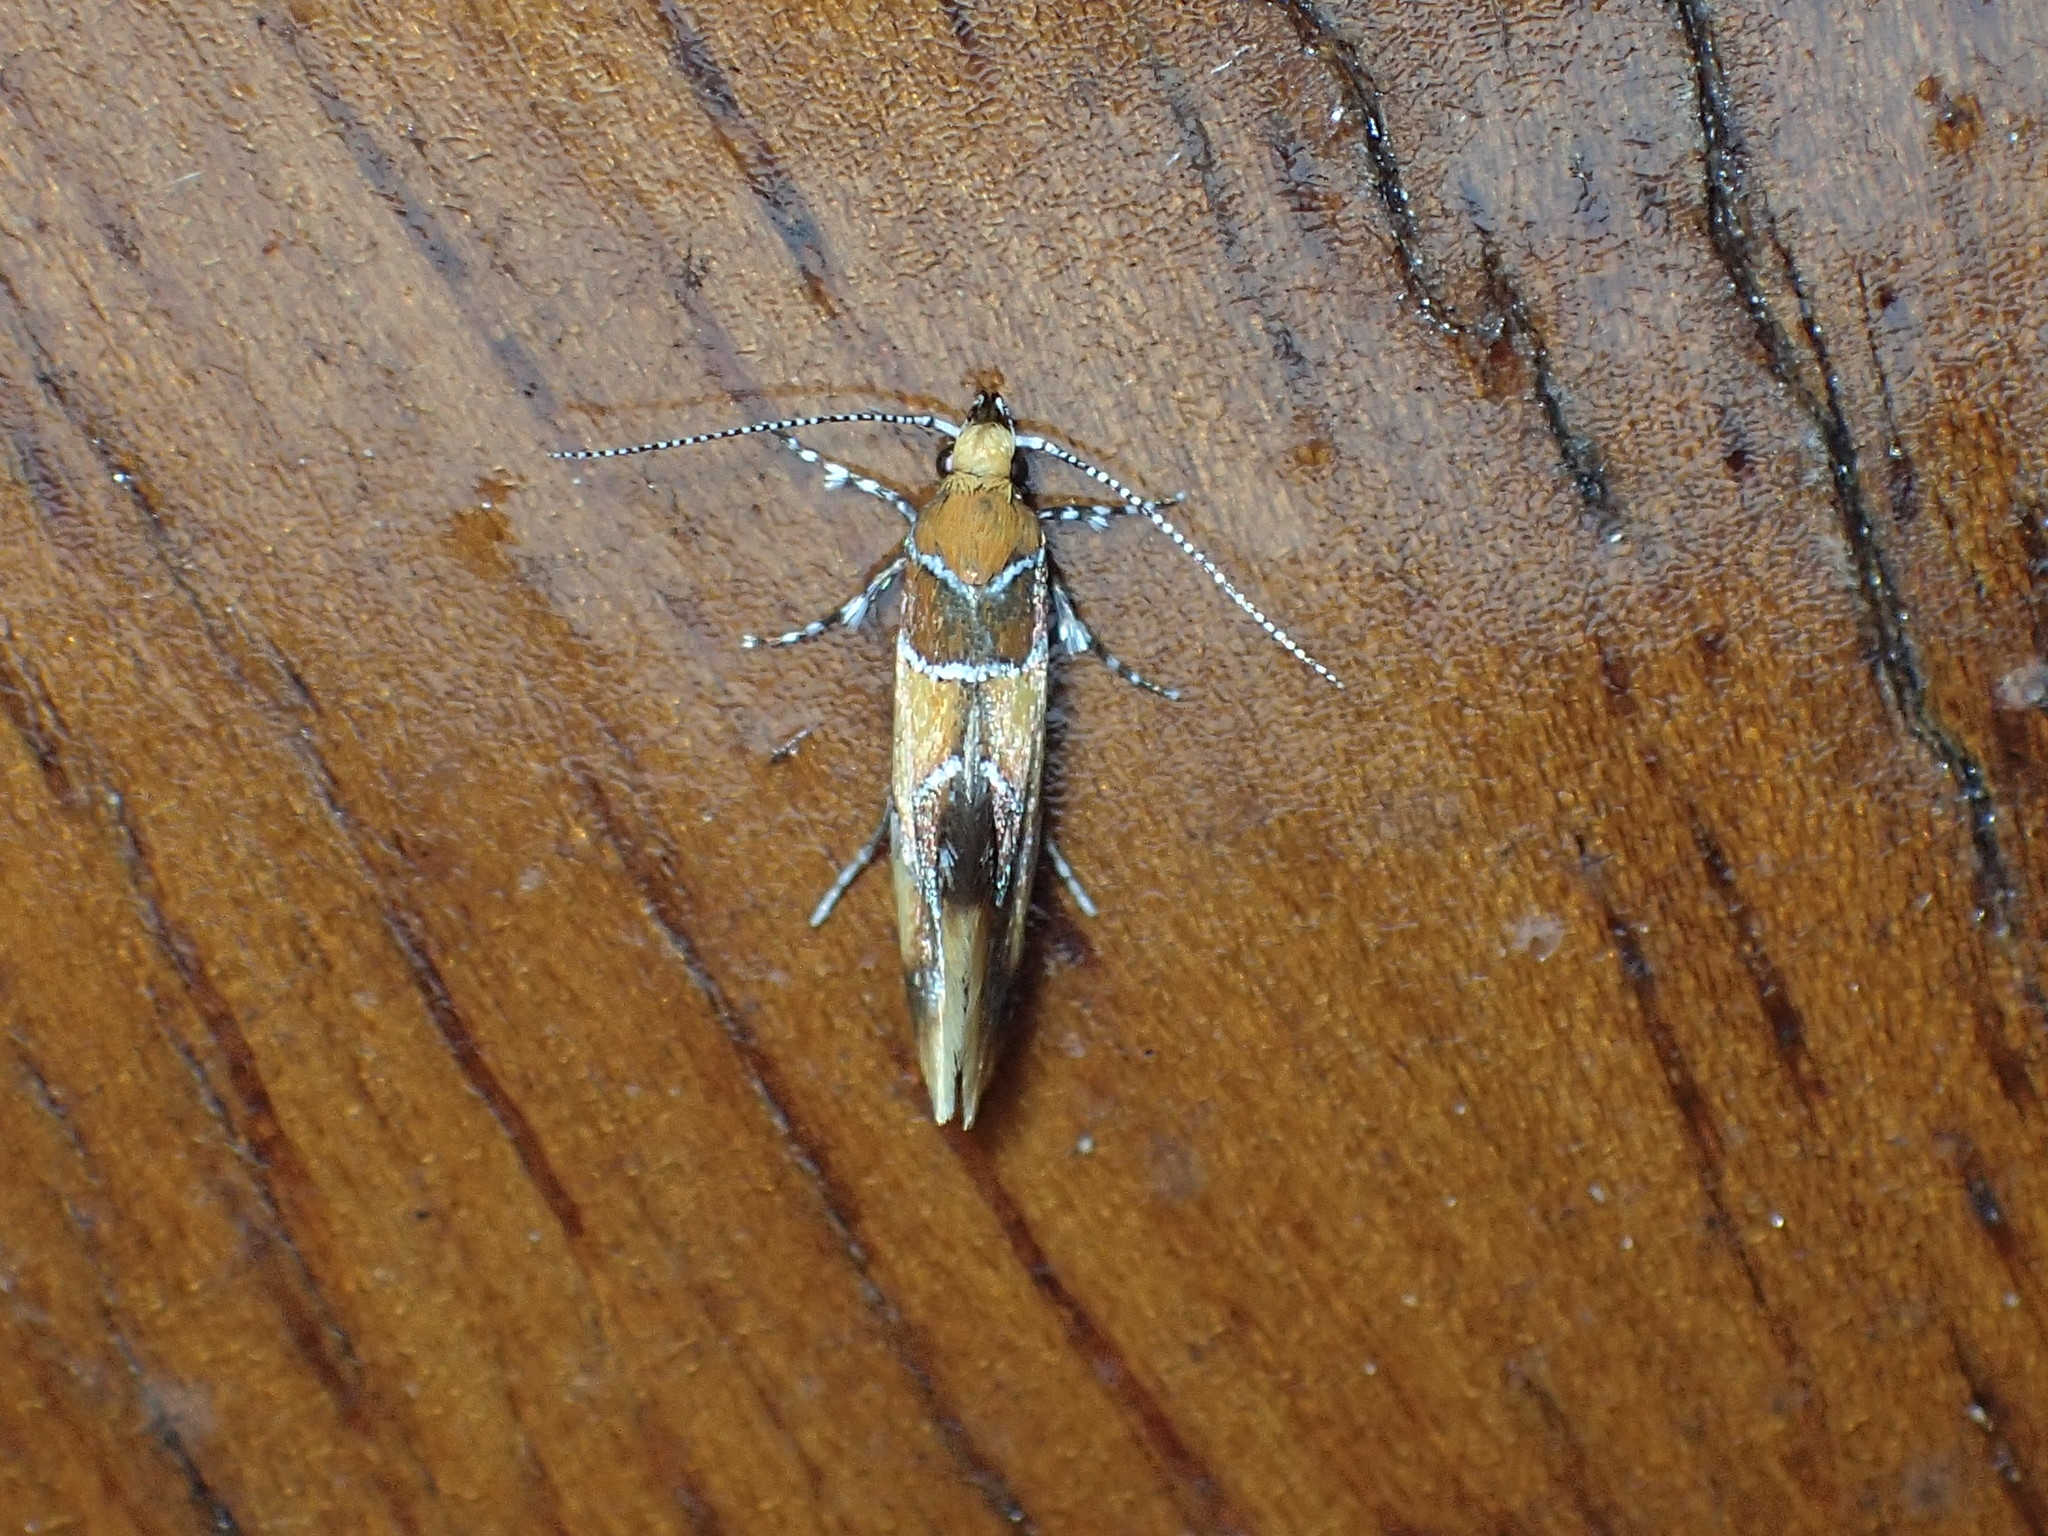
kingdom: Animalia
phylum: Arthropoda
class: Insecta
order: Lepidoptera
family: Oecophoridae
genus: Callima
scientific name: Callima argenticinctella
